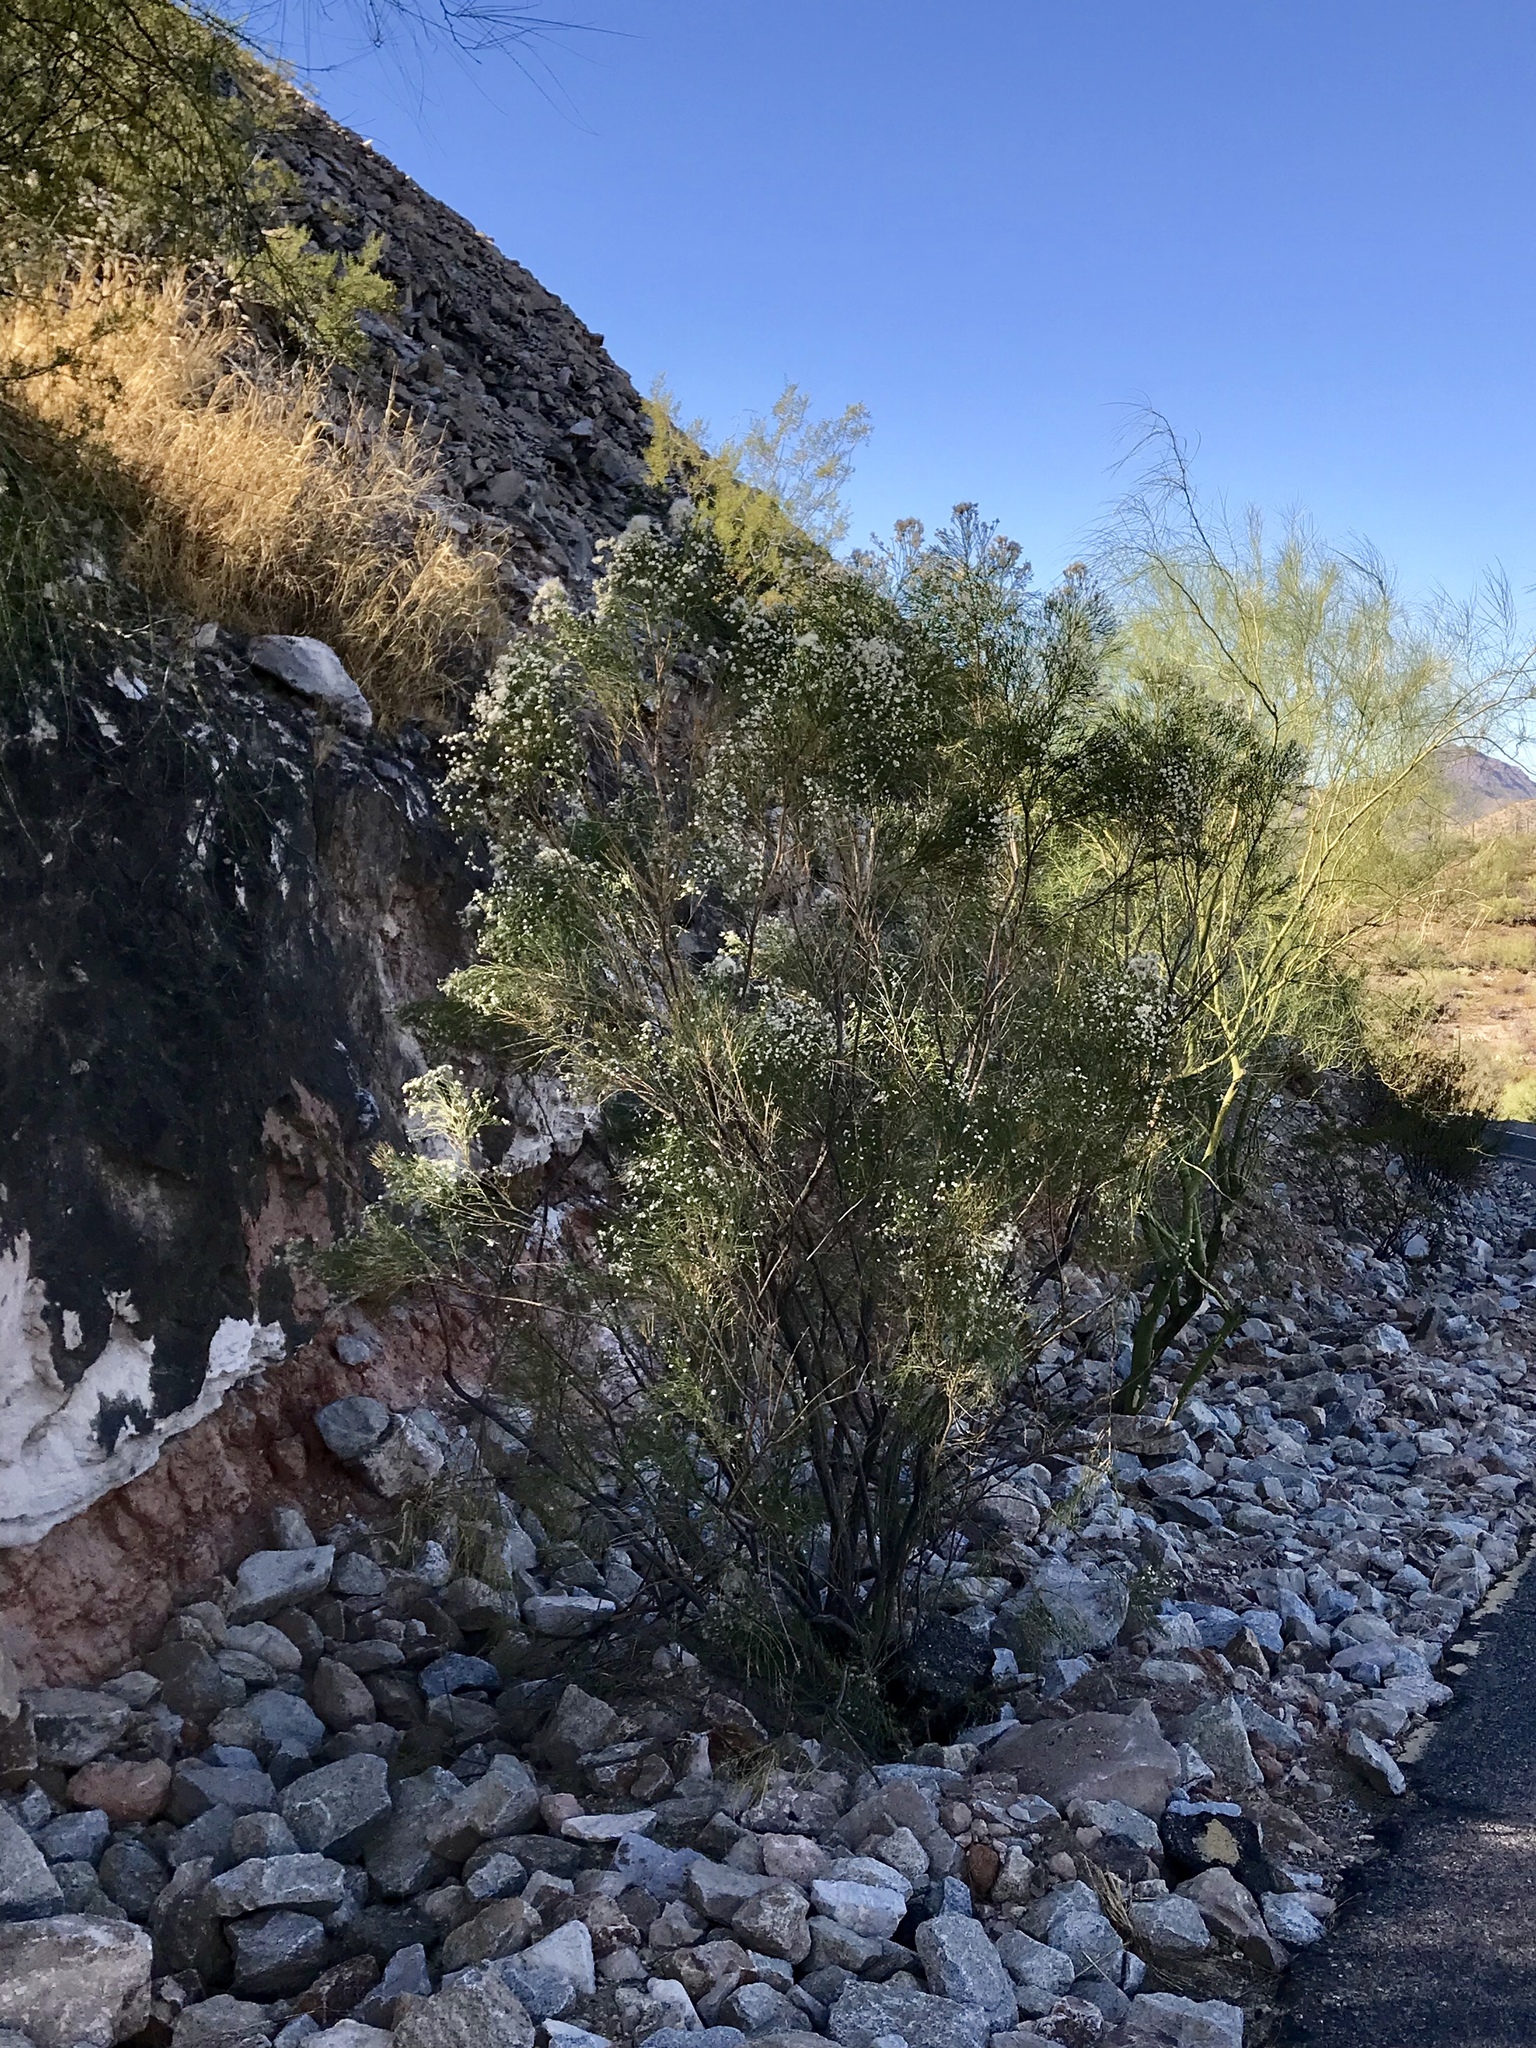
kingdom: Plantae
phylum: Tracheophyta
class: Magnoliopsida
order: Zygophyllales
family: Zygophyllaceae
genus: Larrea
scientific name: Larrea tridentata
